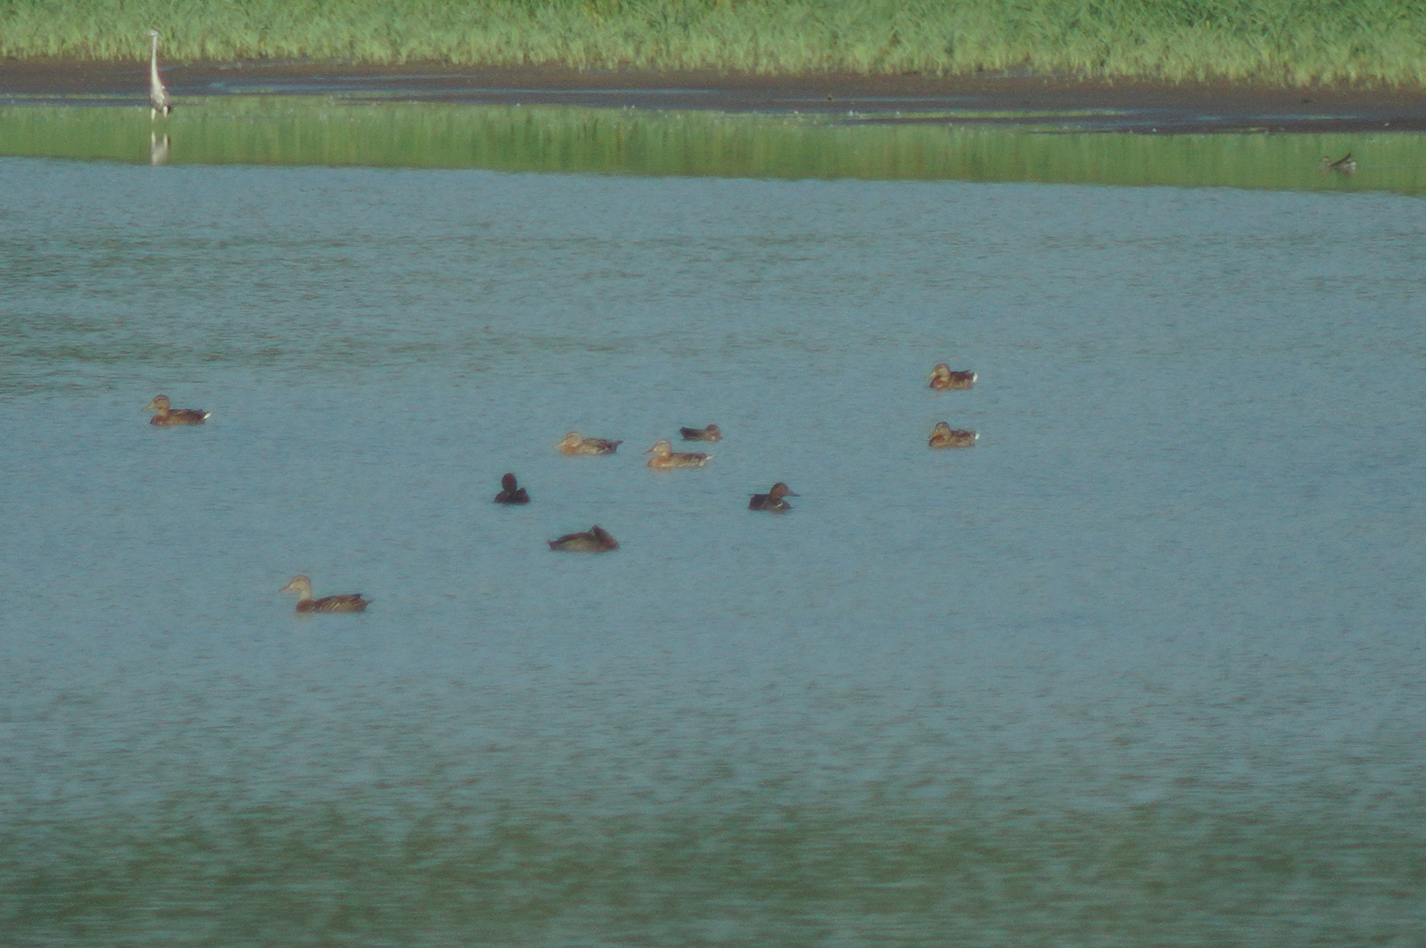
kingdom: Animalia
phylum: Chordata
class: Aves
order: Anseriformes
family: Anatidae
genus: Aythya
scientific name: Aythya ferina
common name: Common pochard
